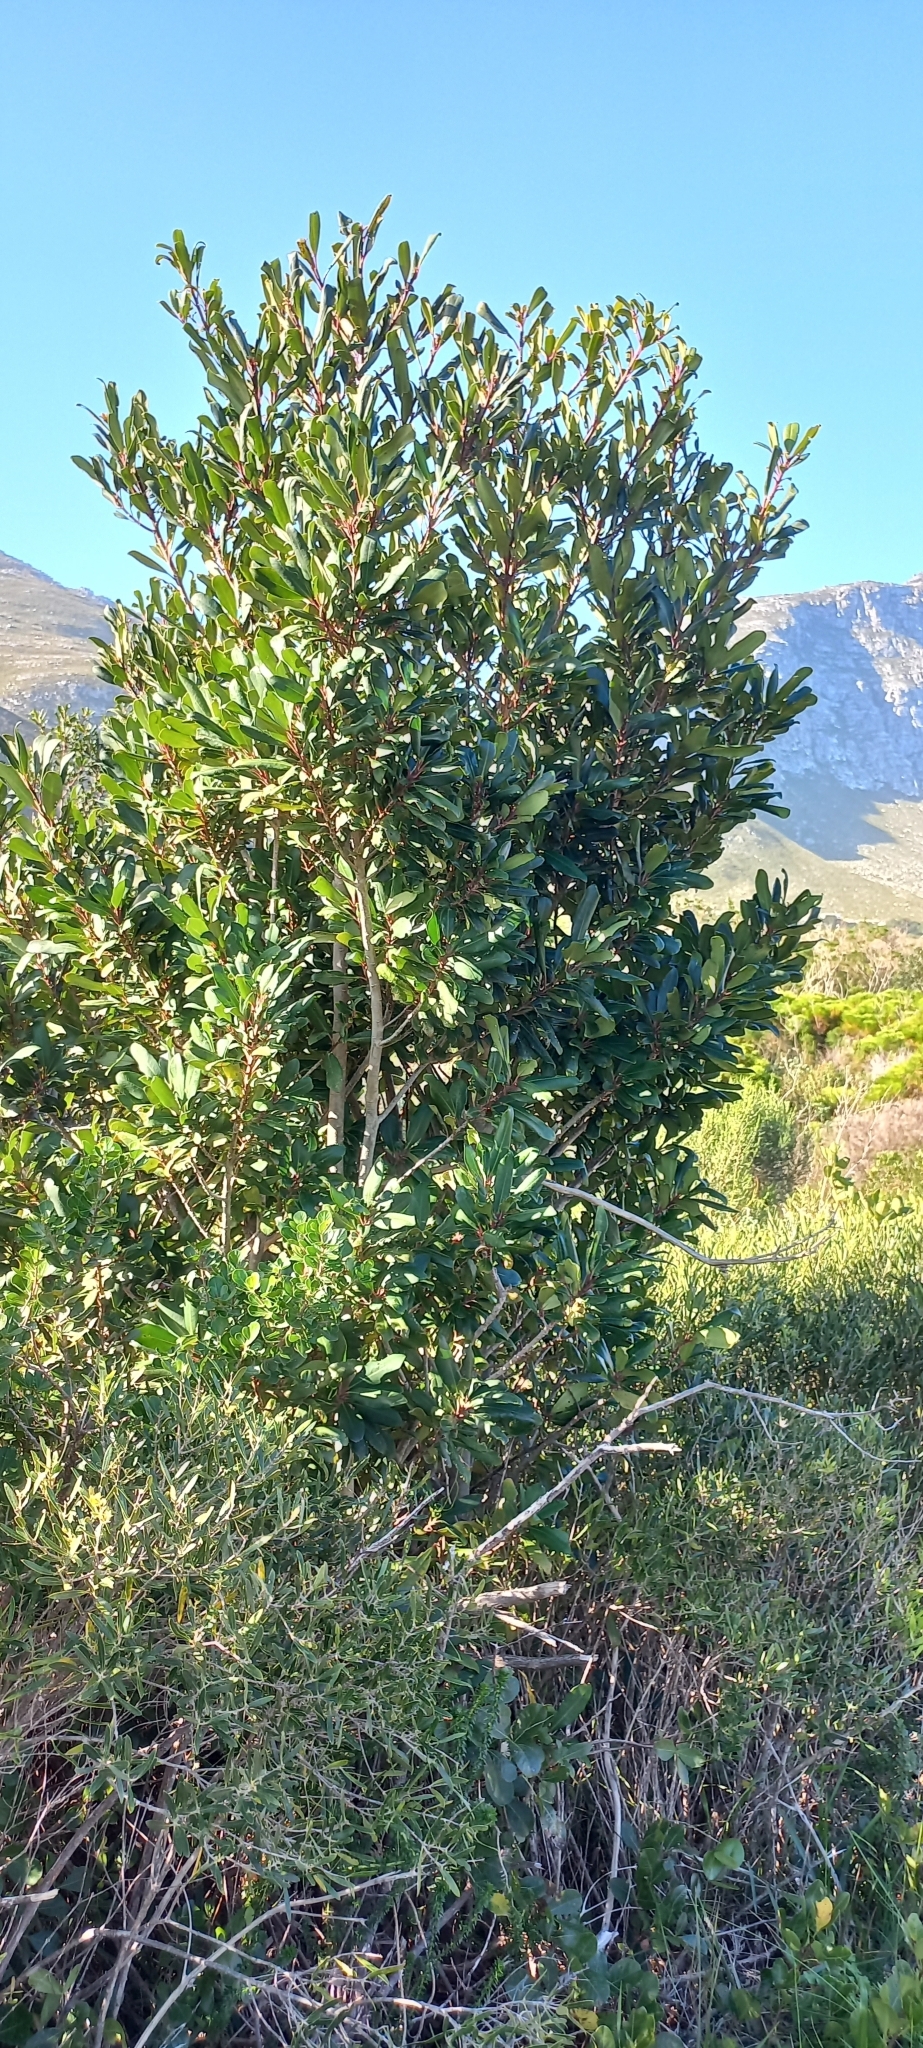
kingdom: Plantae
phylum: Tracheophyta
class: Magnoliopsida
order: Ericales
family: Primulaceae
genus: Myrsine
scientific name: Myrsine melanophloeos
